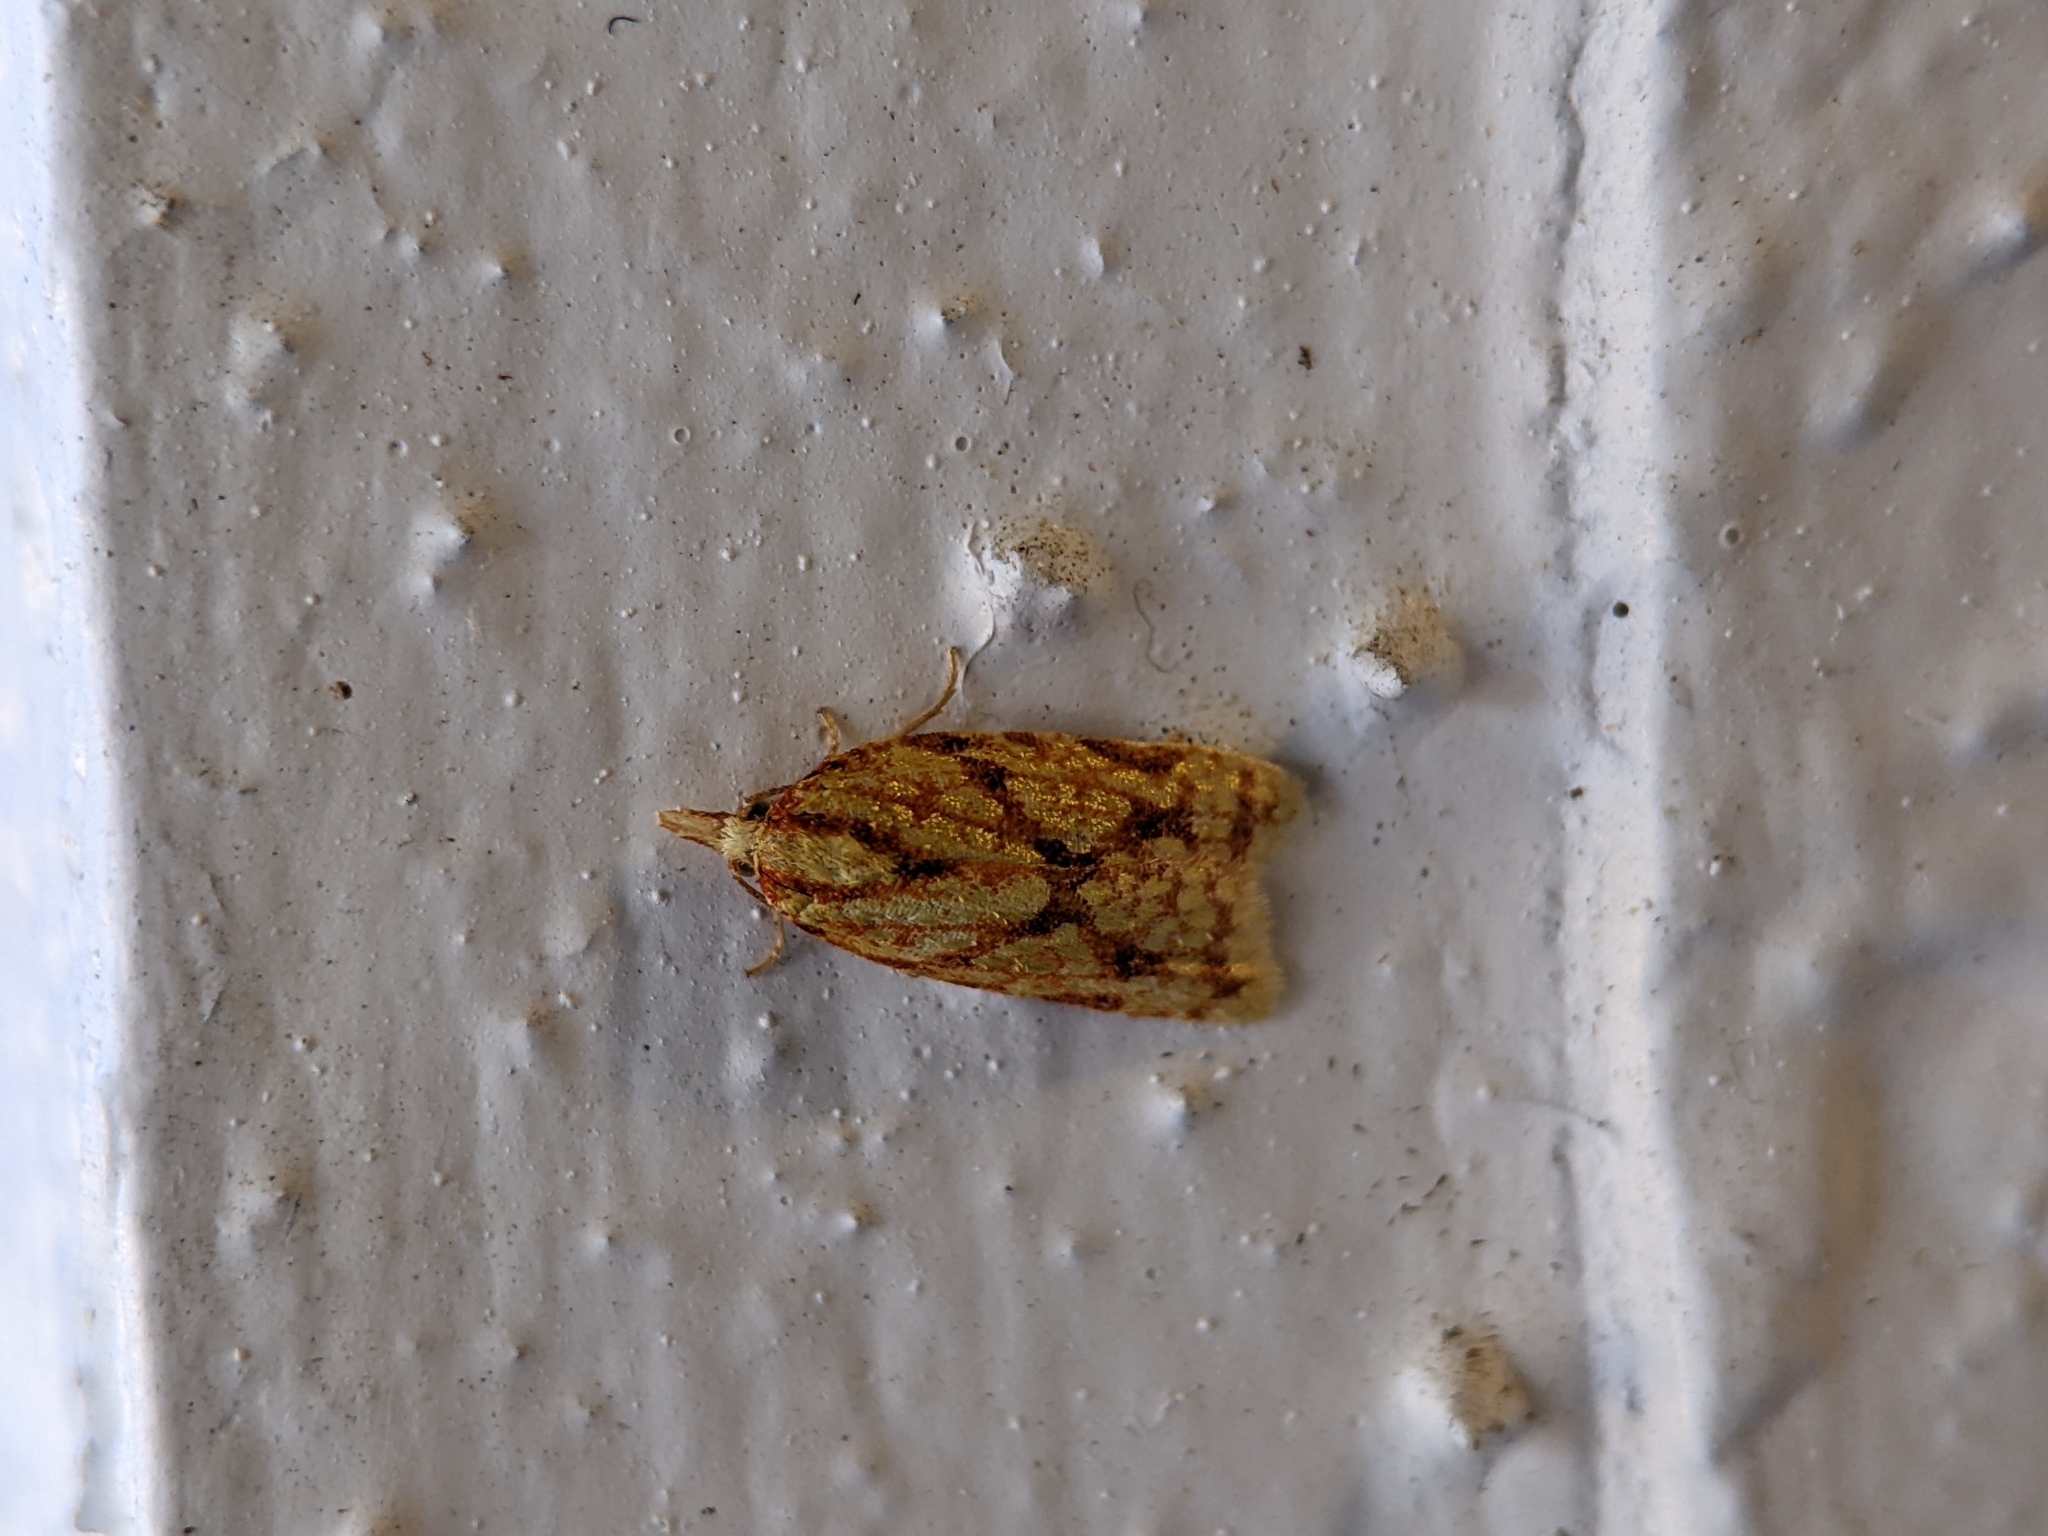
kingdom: Animalia
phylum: Arthropoda
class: Insecta
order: Lepidoptera
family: Tortricidae
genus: Sparganothis
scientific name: Sparganothis sulfureana
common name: Sparganothis fruitworm moth
